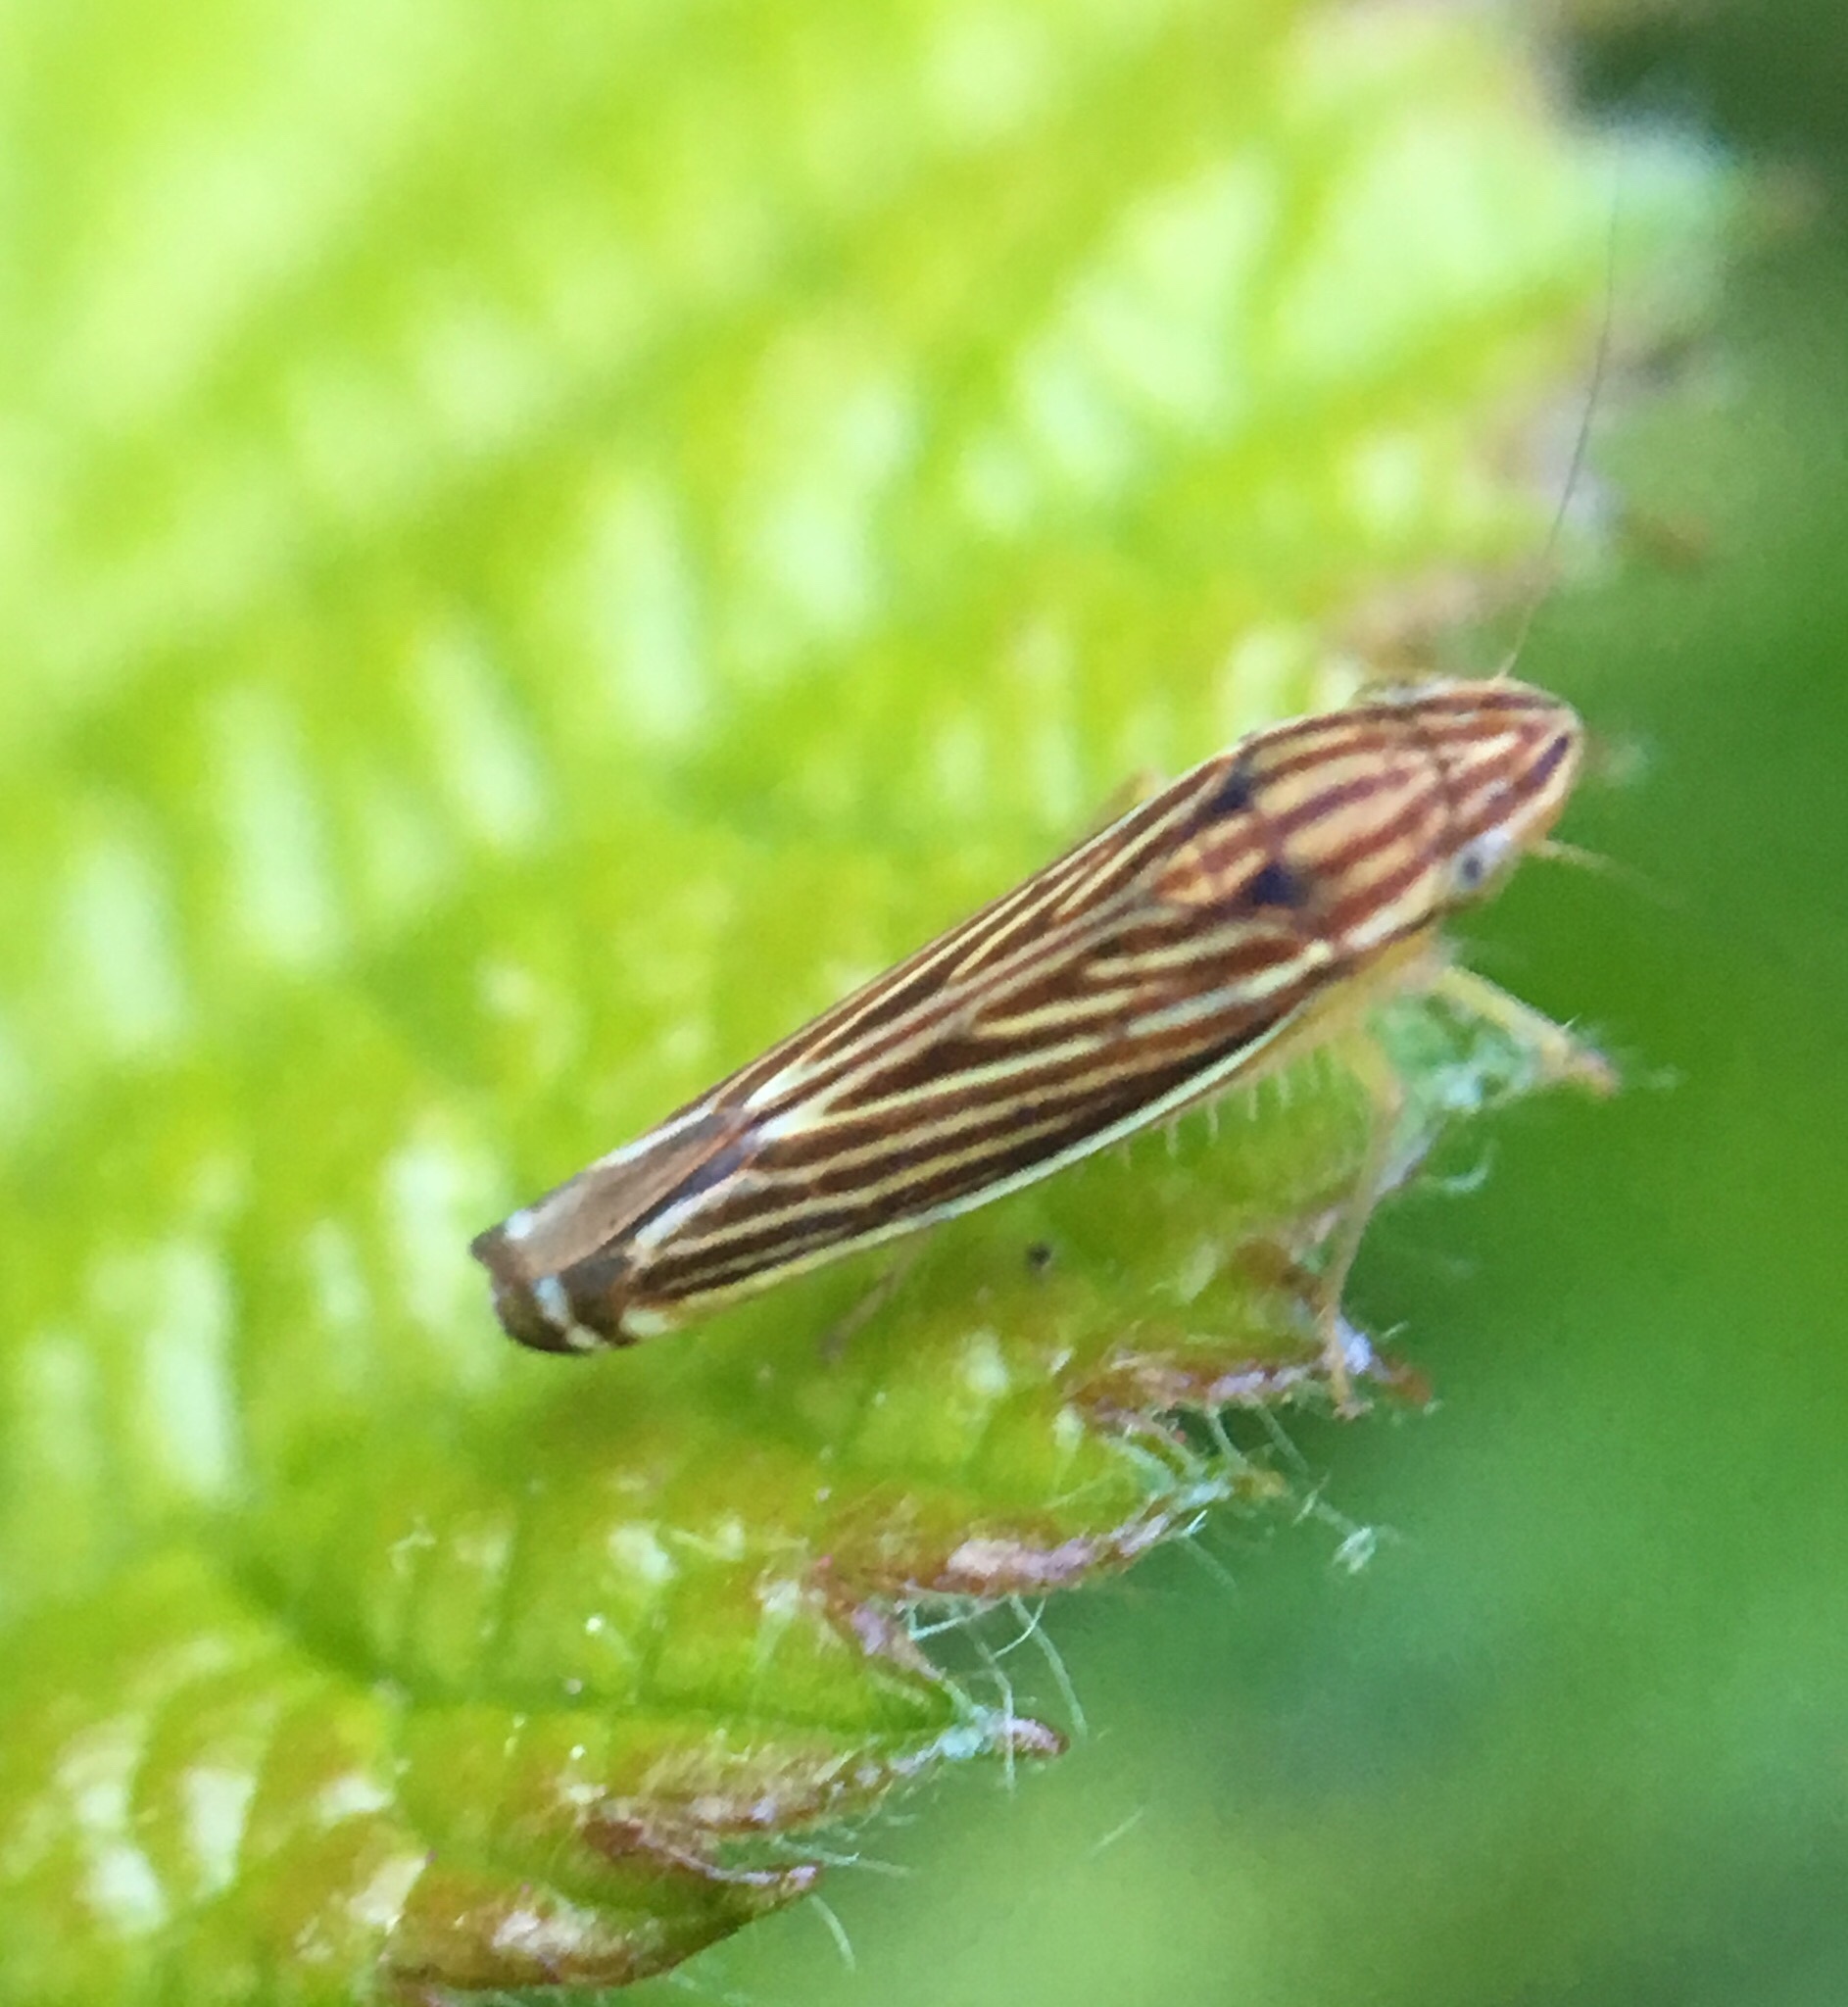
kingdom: Animalia
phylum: Arthropoda
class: Insecta
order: Hemiptera
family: Cicadellidae
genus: Sibovia
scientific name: Sibovia occatoria
